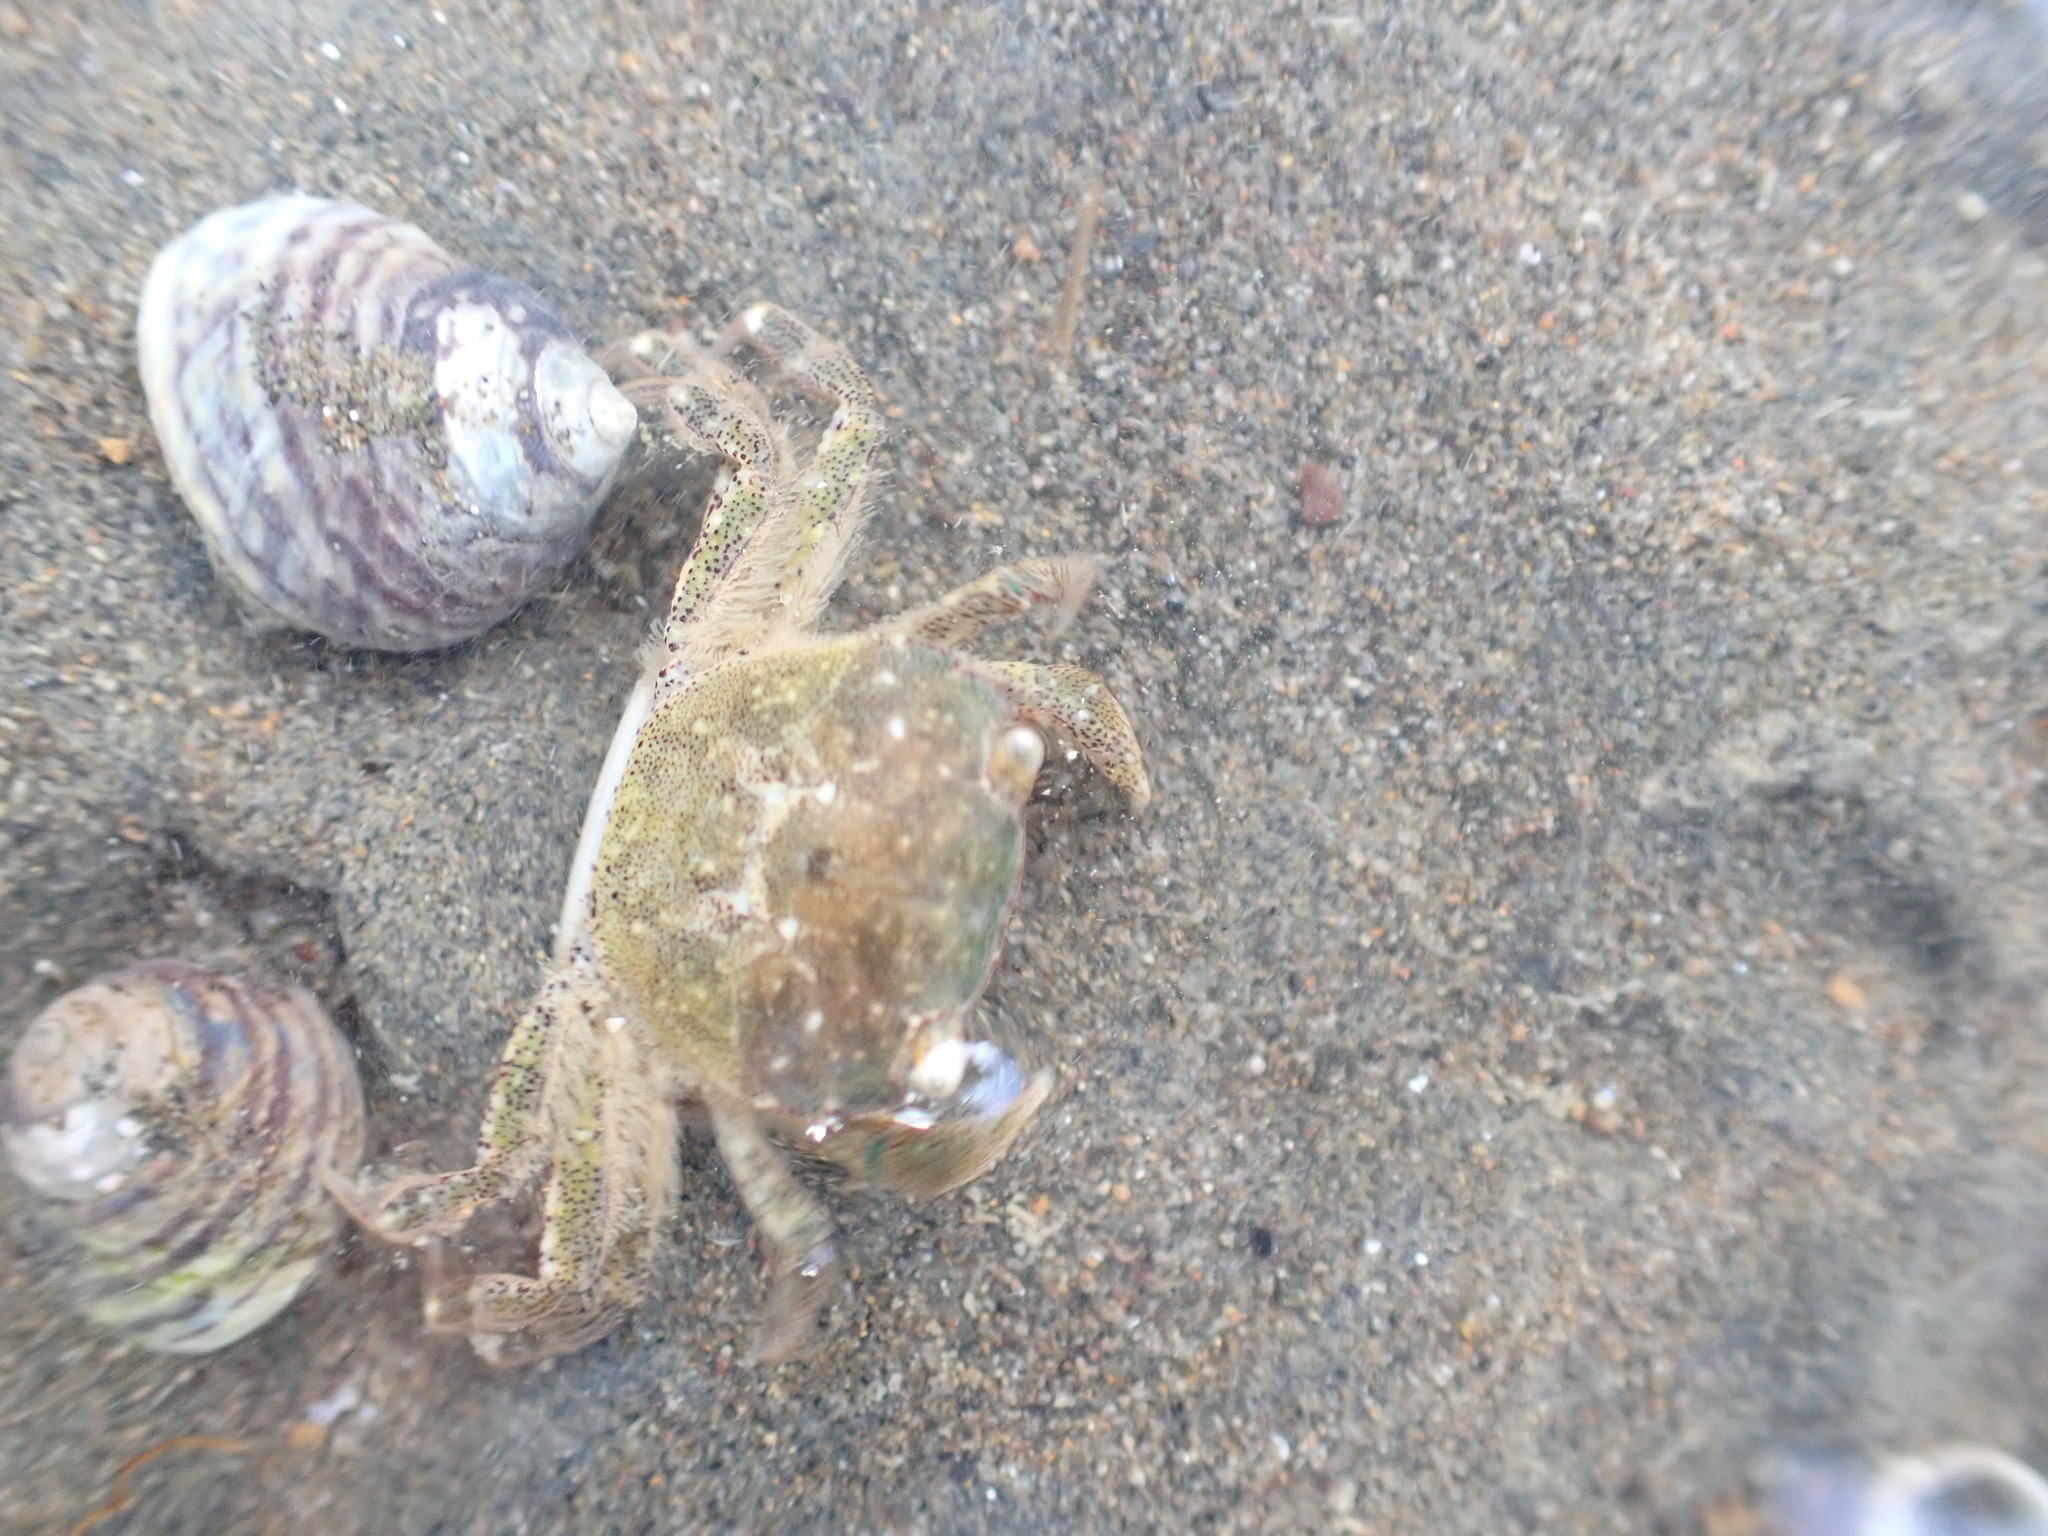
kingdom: Animalia
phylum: Arthropoda
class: Malacostraca
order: Decapoda
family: Varunidae
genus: Hemigrapsus
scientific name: Hemigrapsus crenulatus
